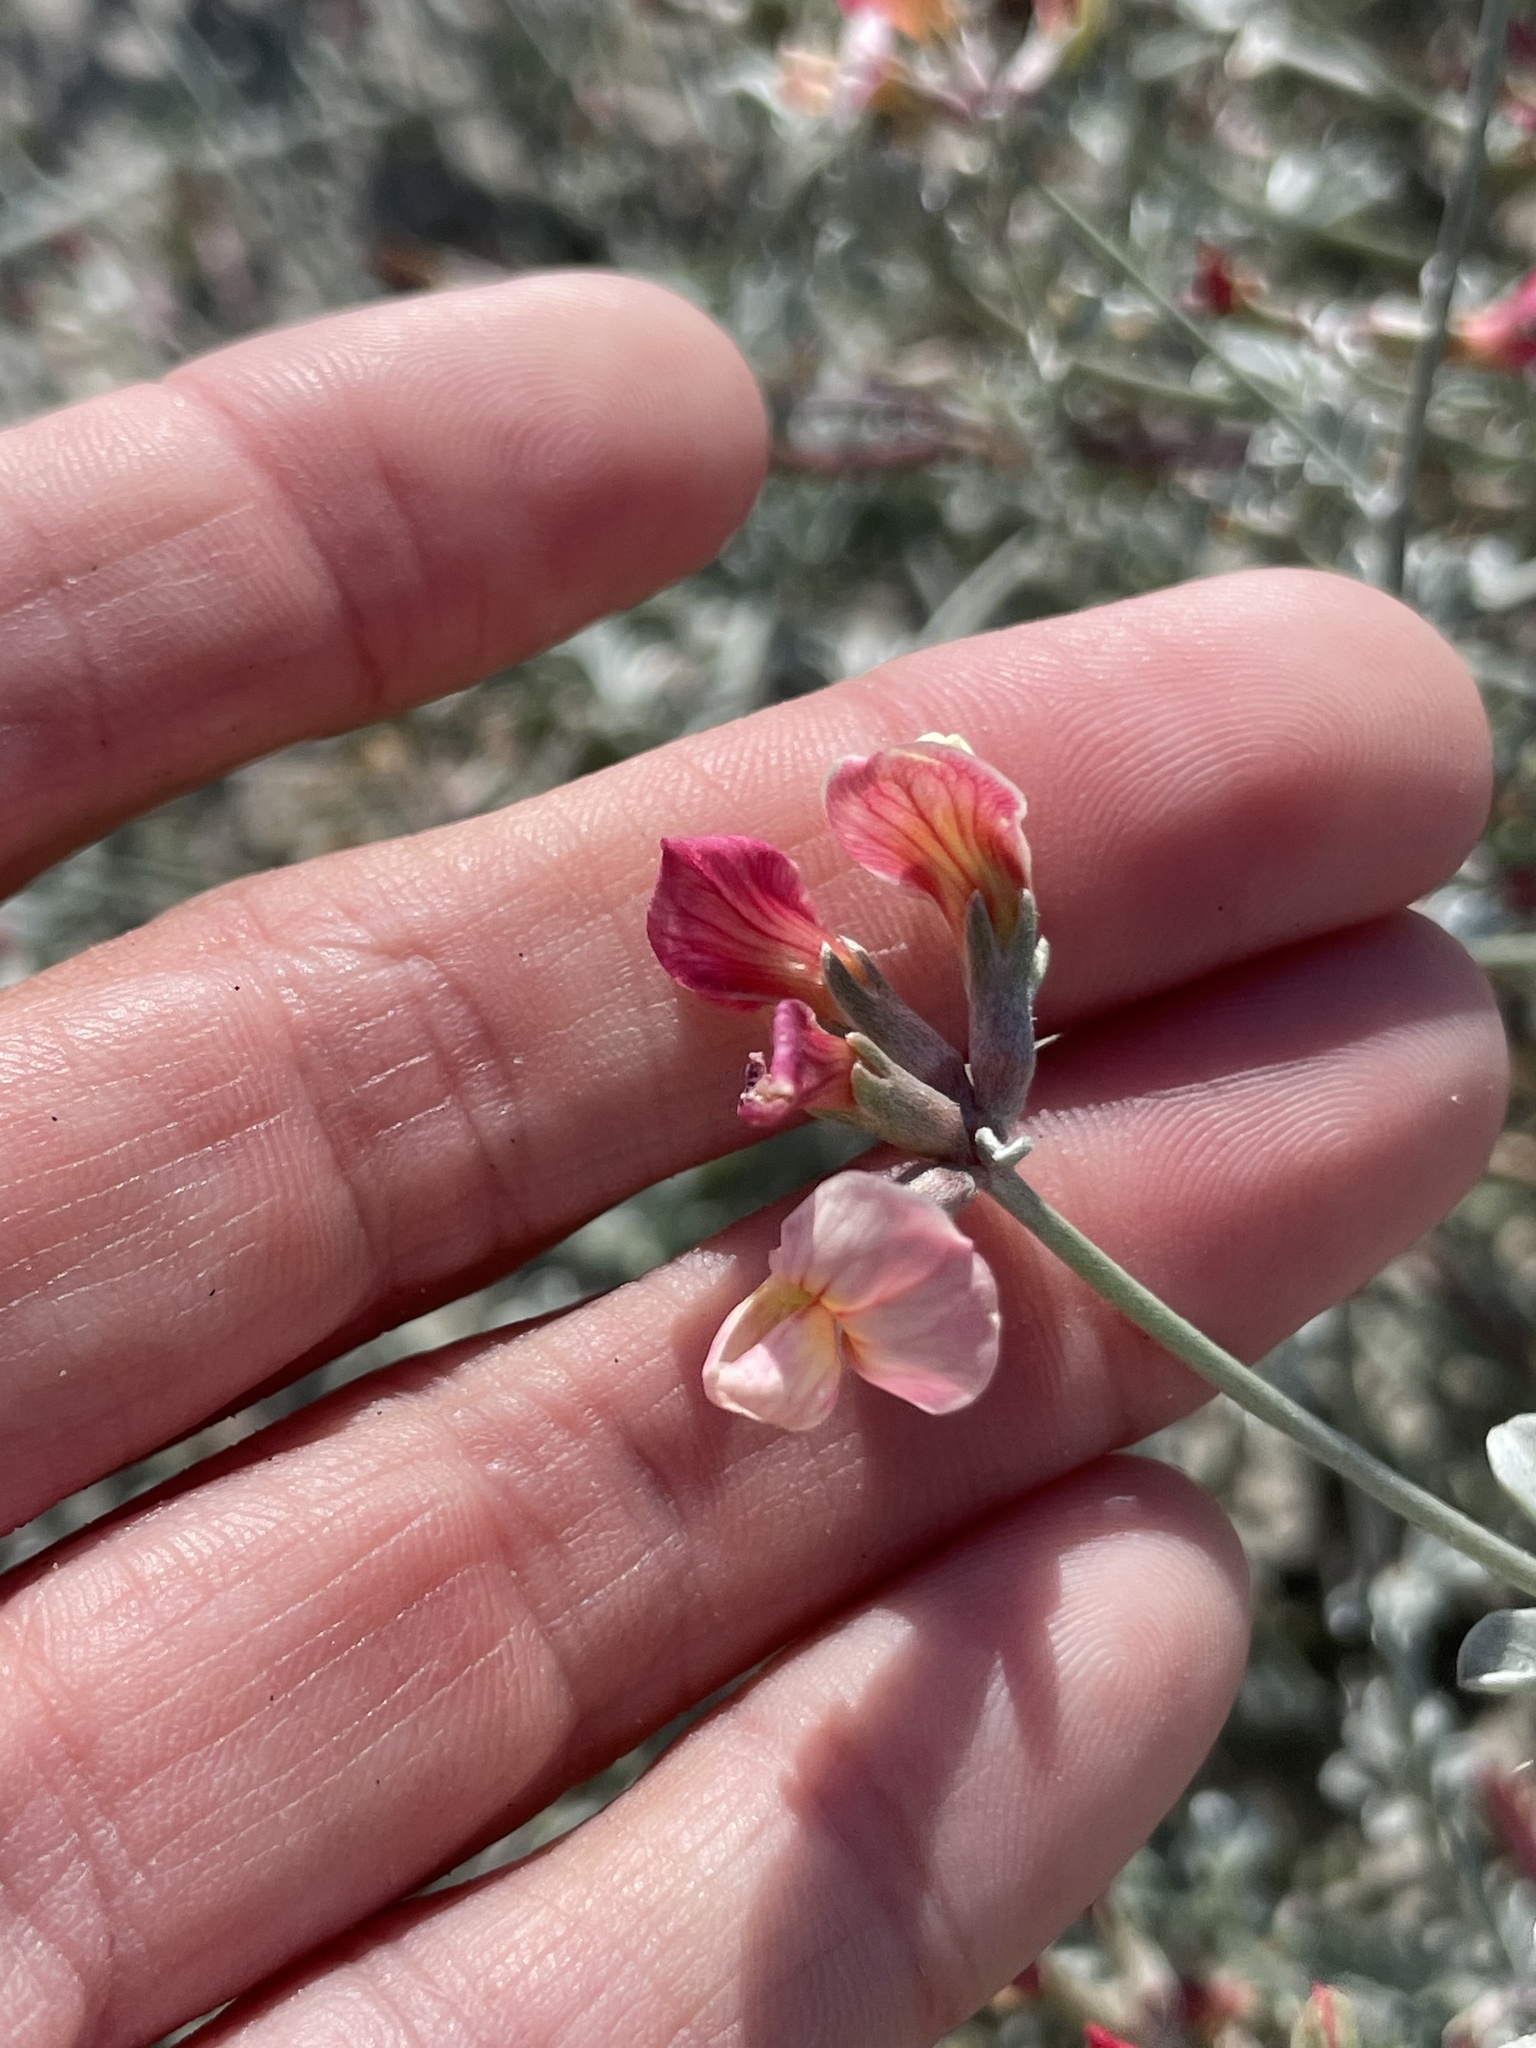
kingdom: Plantae
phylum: Tracheophyta
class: Magnoliopsida
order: Fabales
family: Fabaceae
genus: Acmispon
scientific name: Acmispon niveus
